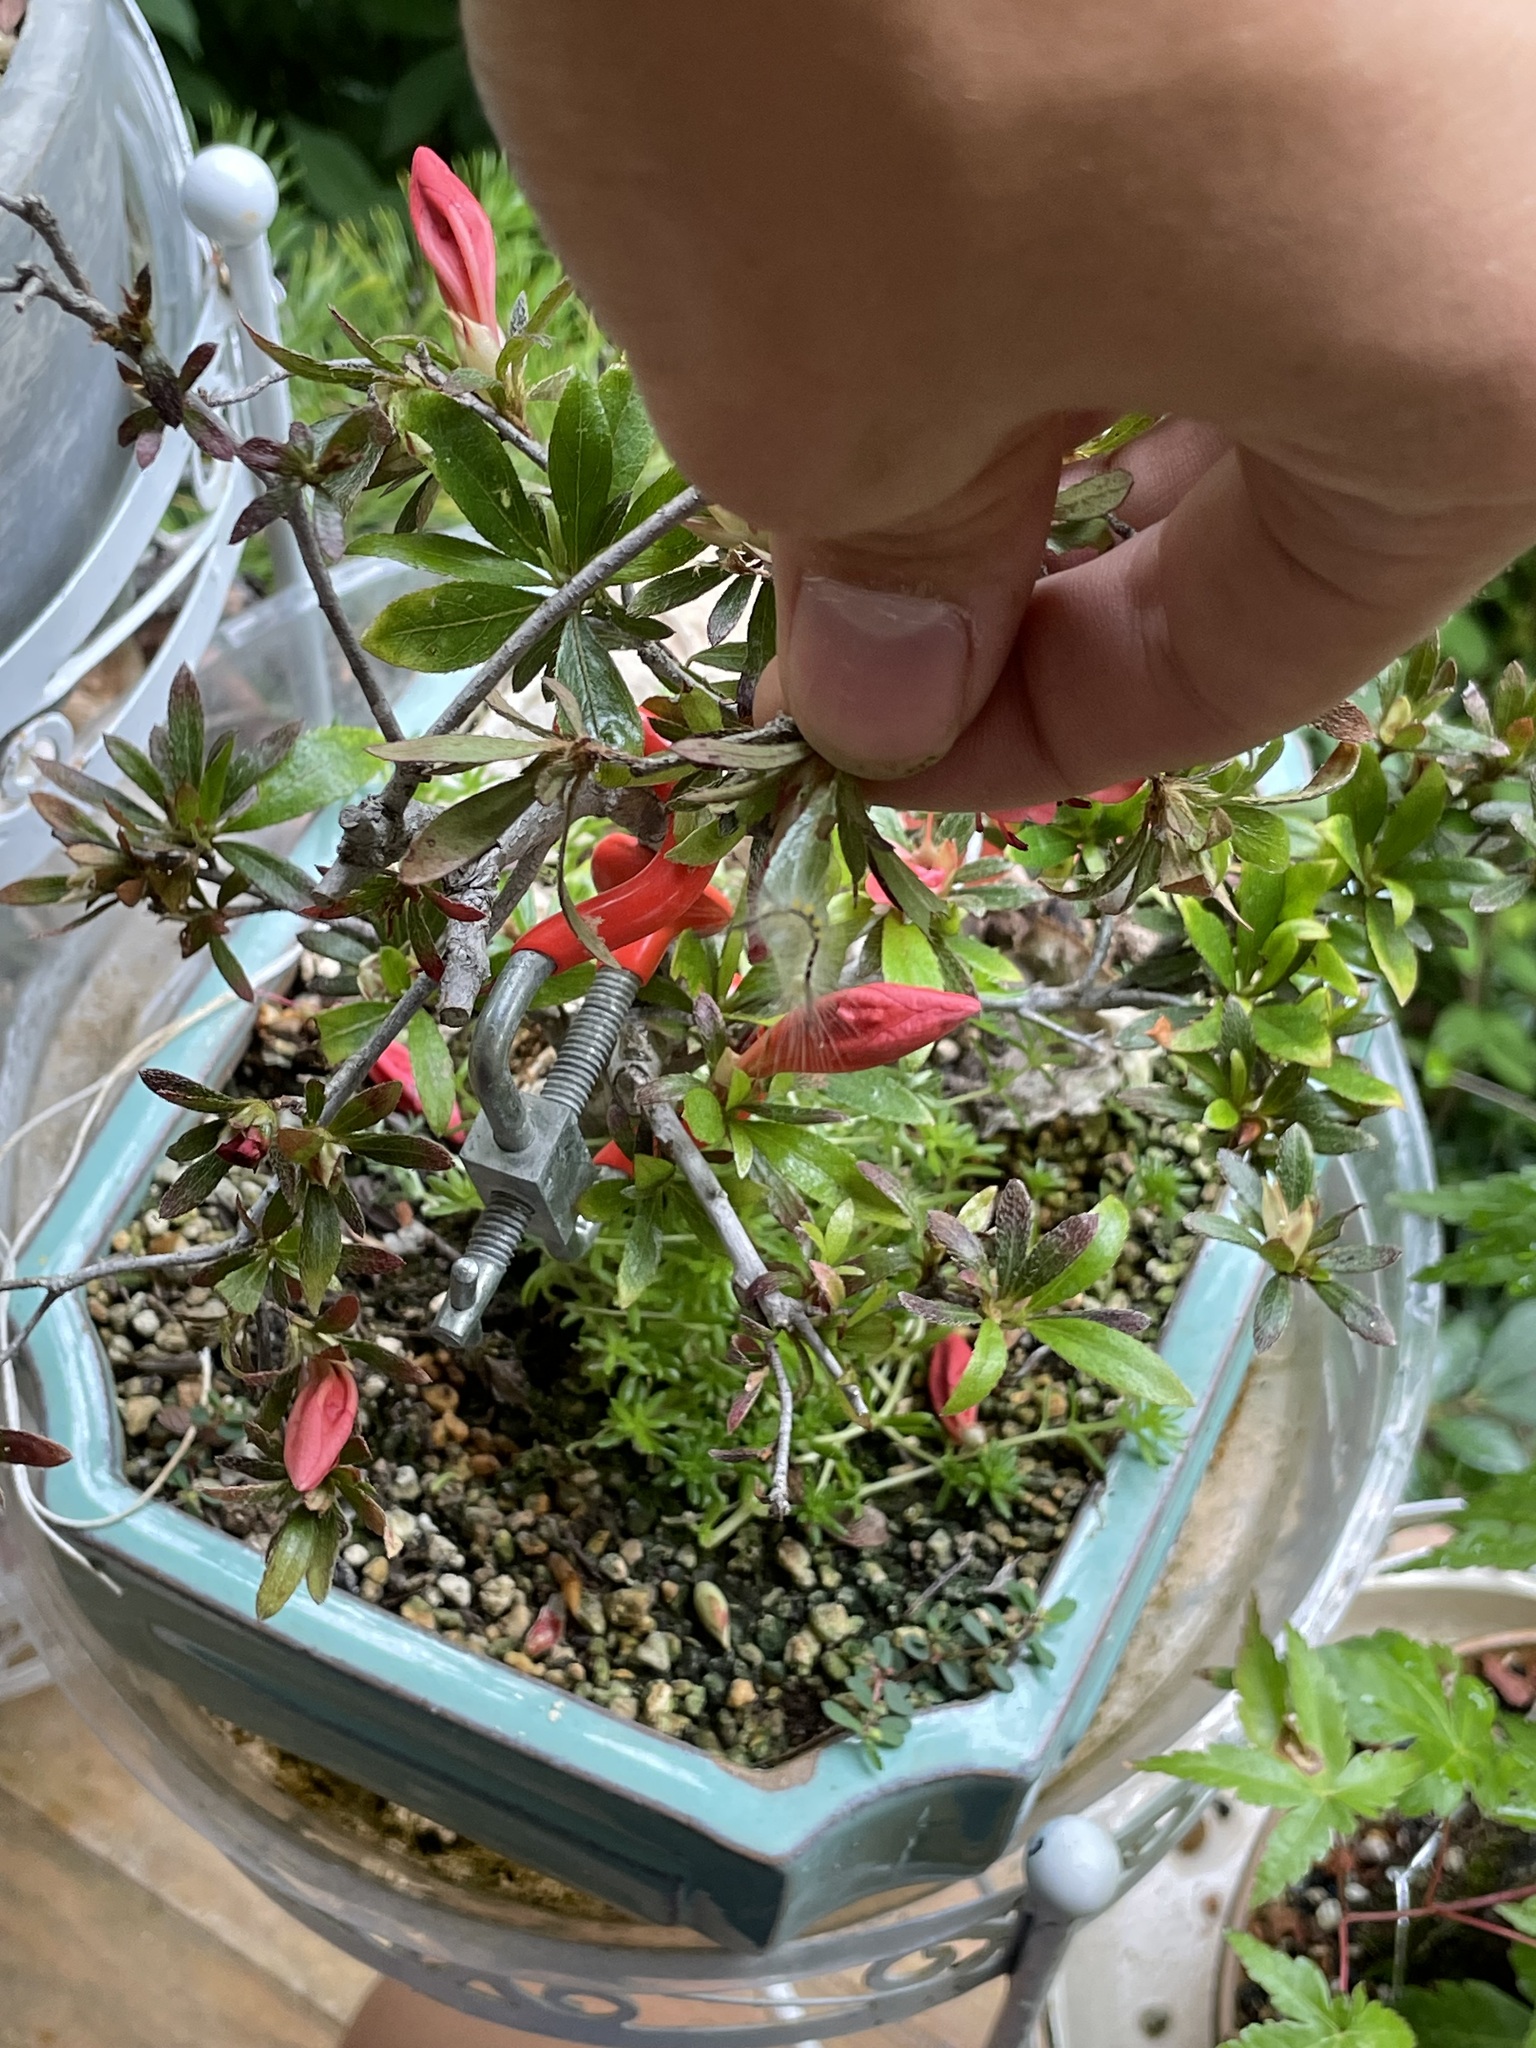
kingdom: Animalia
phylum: Arthropoda
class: Insecta
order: Lepidoptera
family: Erebidae
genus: Orgyia
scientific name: Orgyia definita
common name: Definite tussock moth
